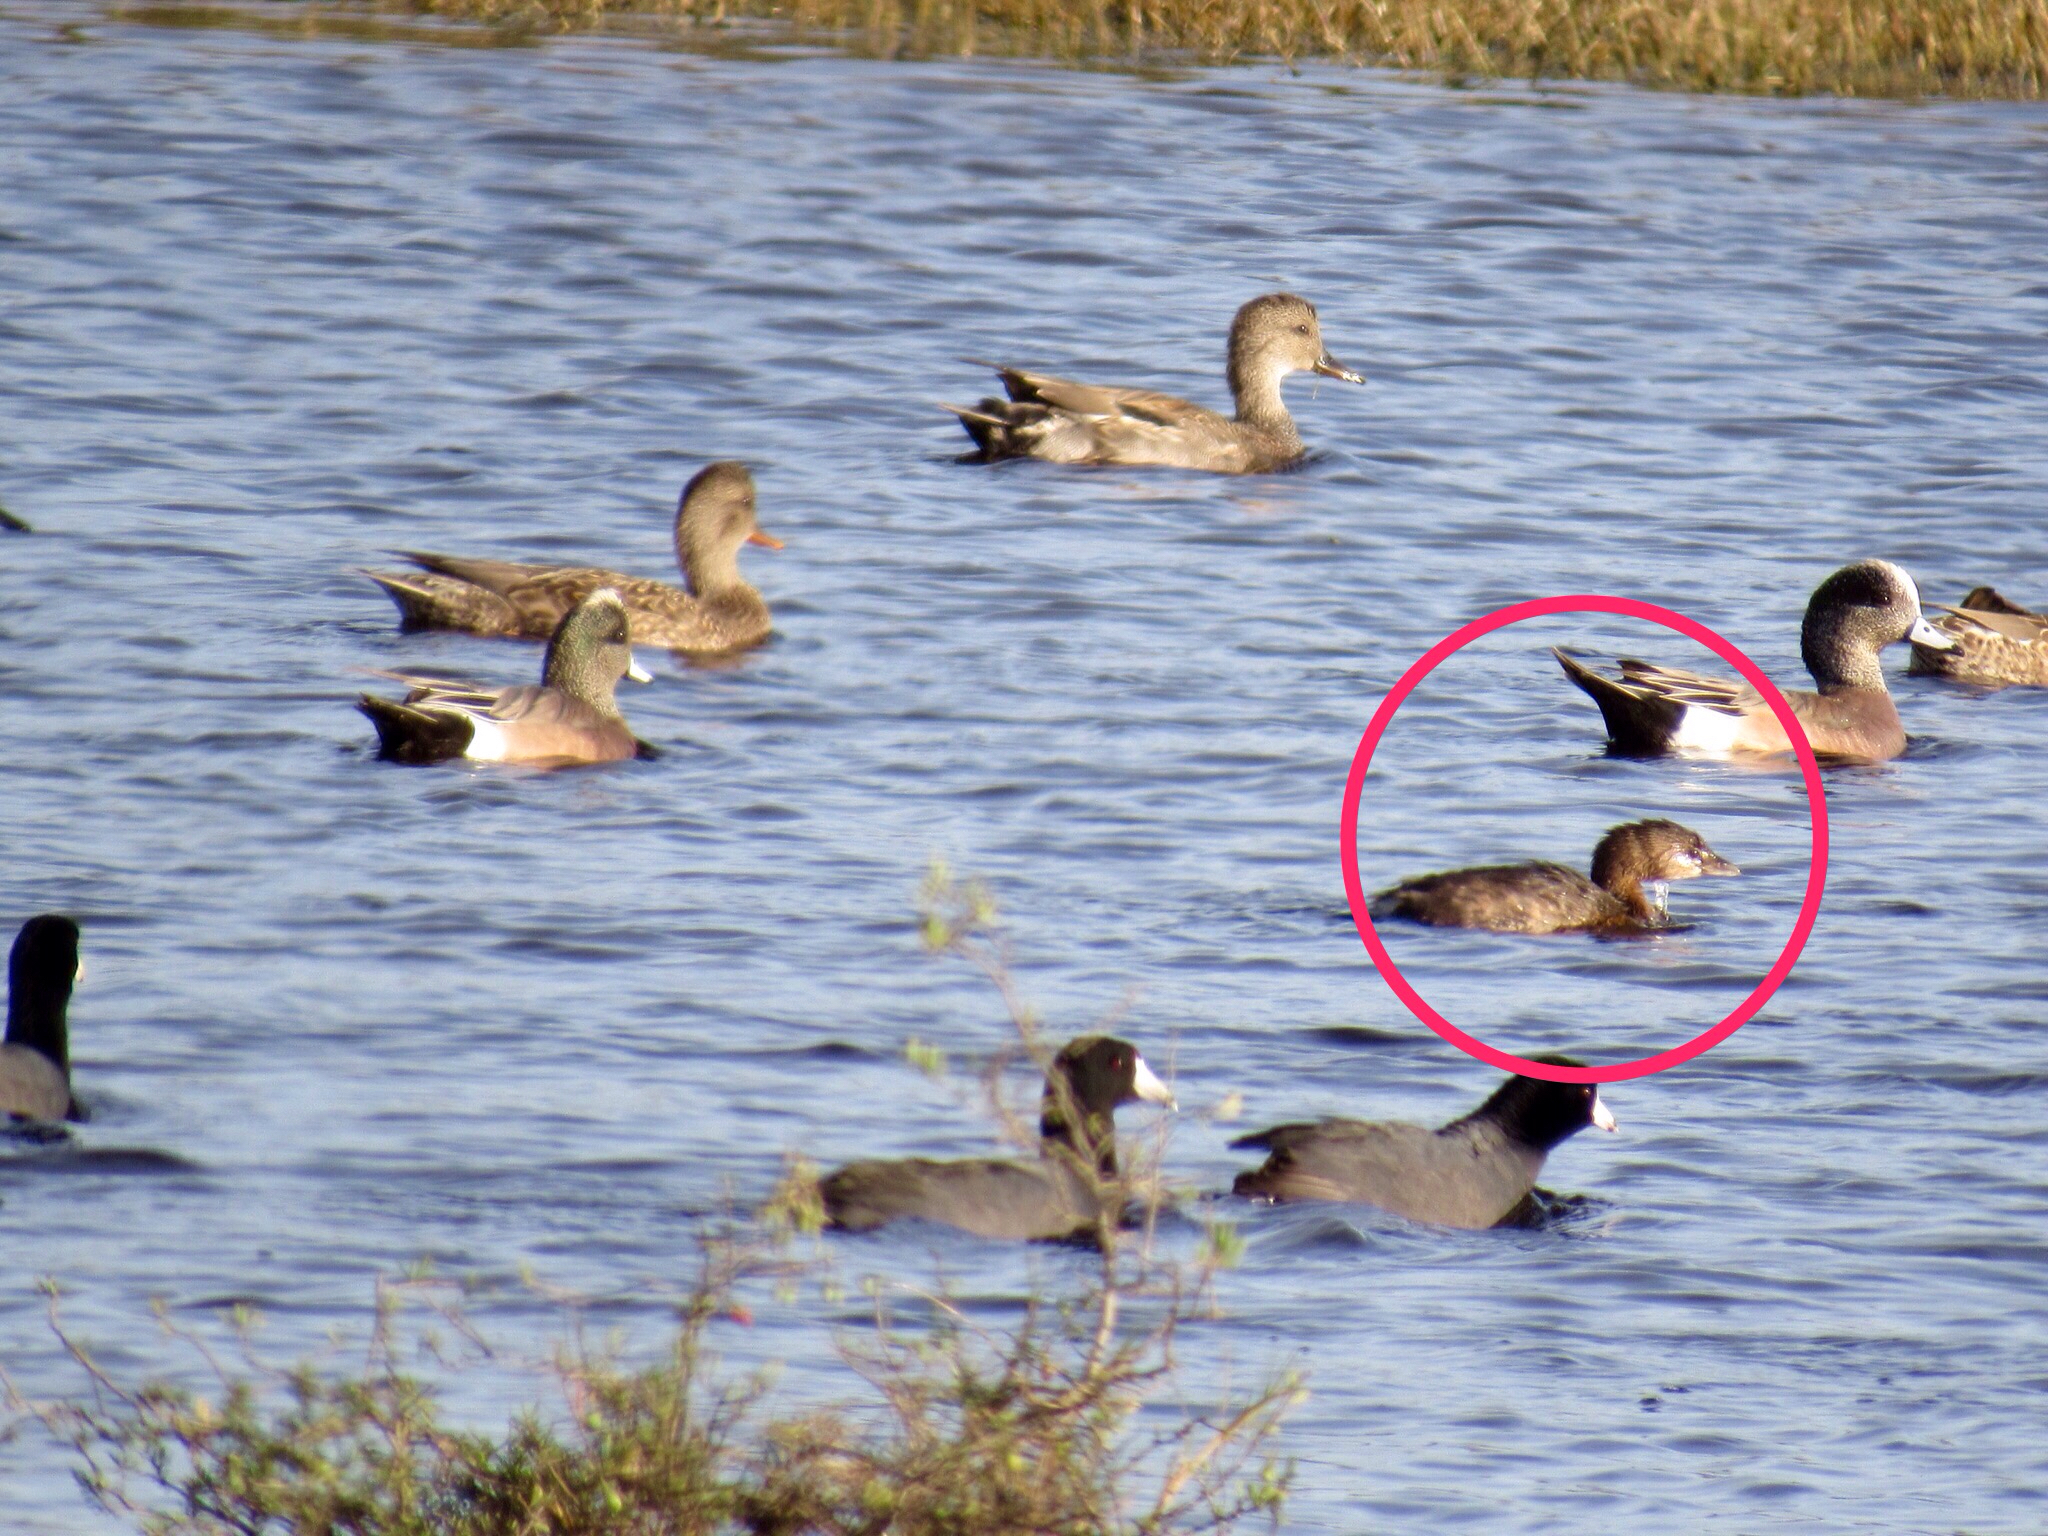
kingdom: Animalia
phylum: Chordata
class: Aves
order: Podicipediformes
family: Podicipedidae
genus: Podilymbus
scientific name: Podilymbus podiceps
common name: Pied-billed grebe
